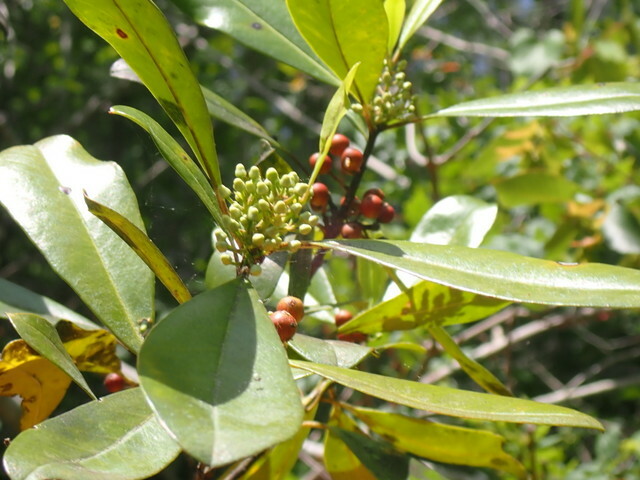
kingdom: Plantae
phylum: Tracheophyta
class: Magnoliopsida
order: Aquifoliales
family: Aquifoliaceae
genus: Ilex
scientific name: Ilex cassine
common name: Dahoon
